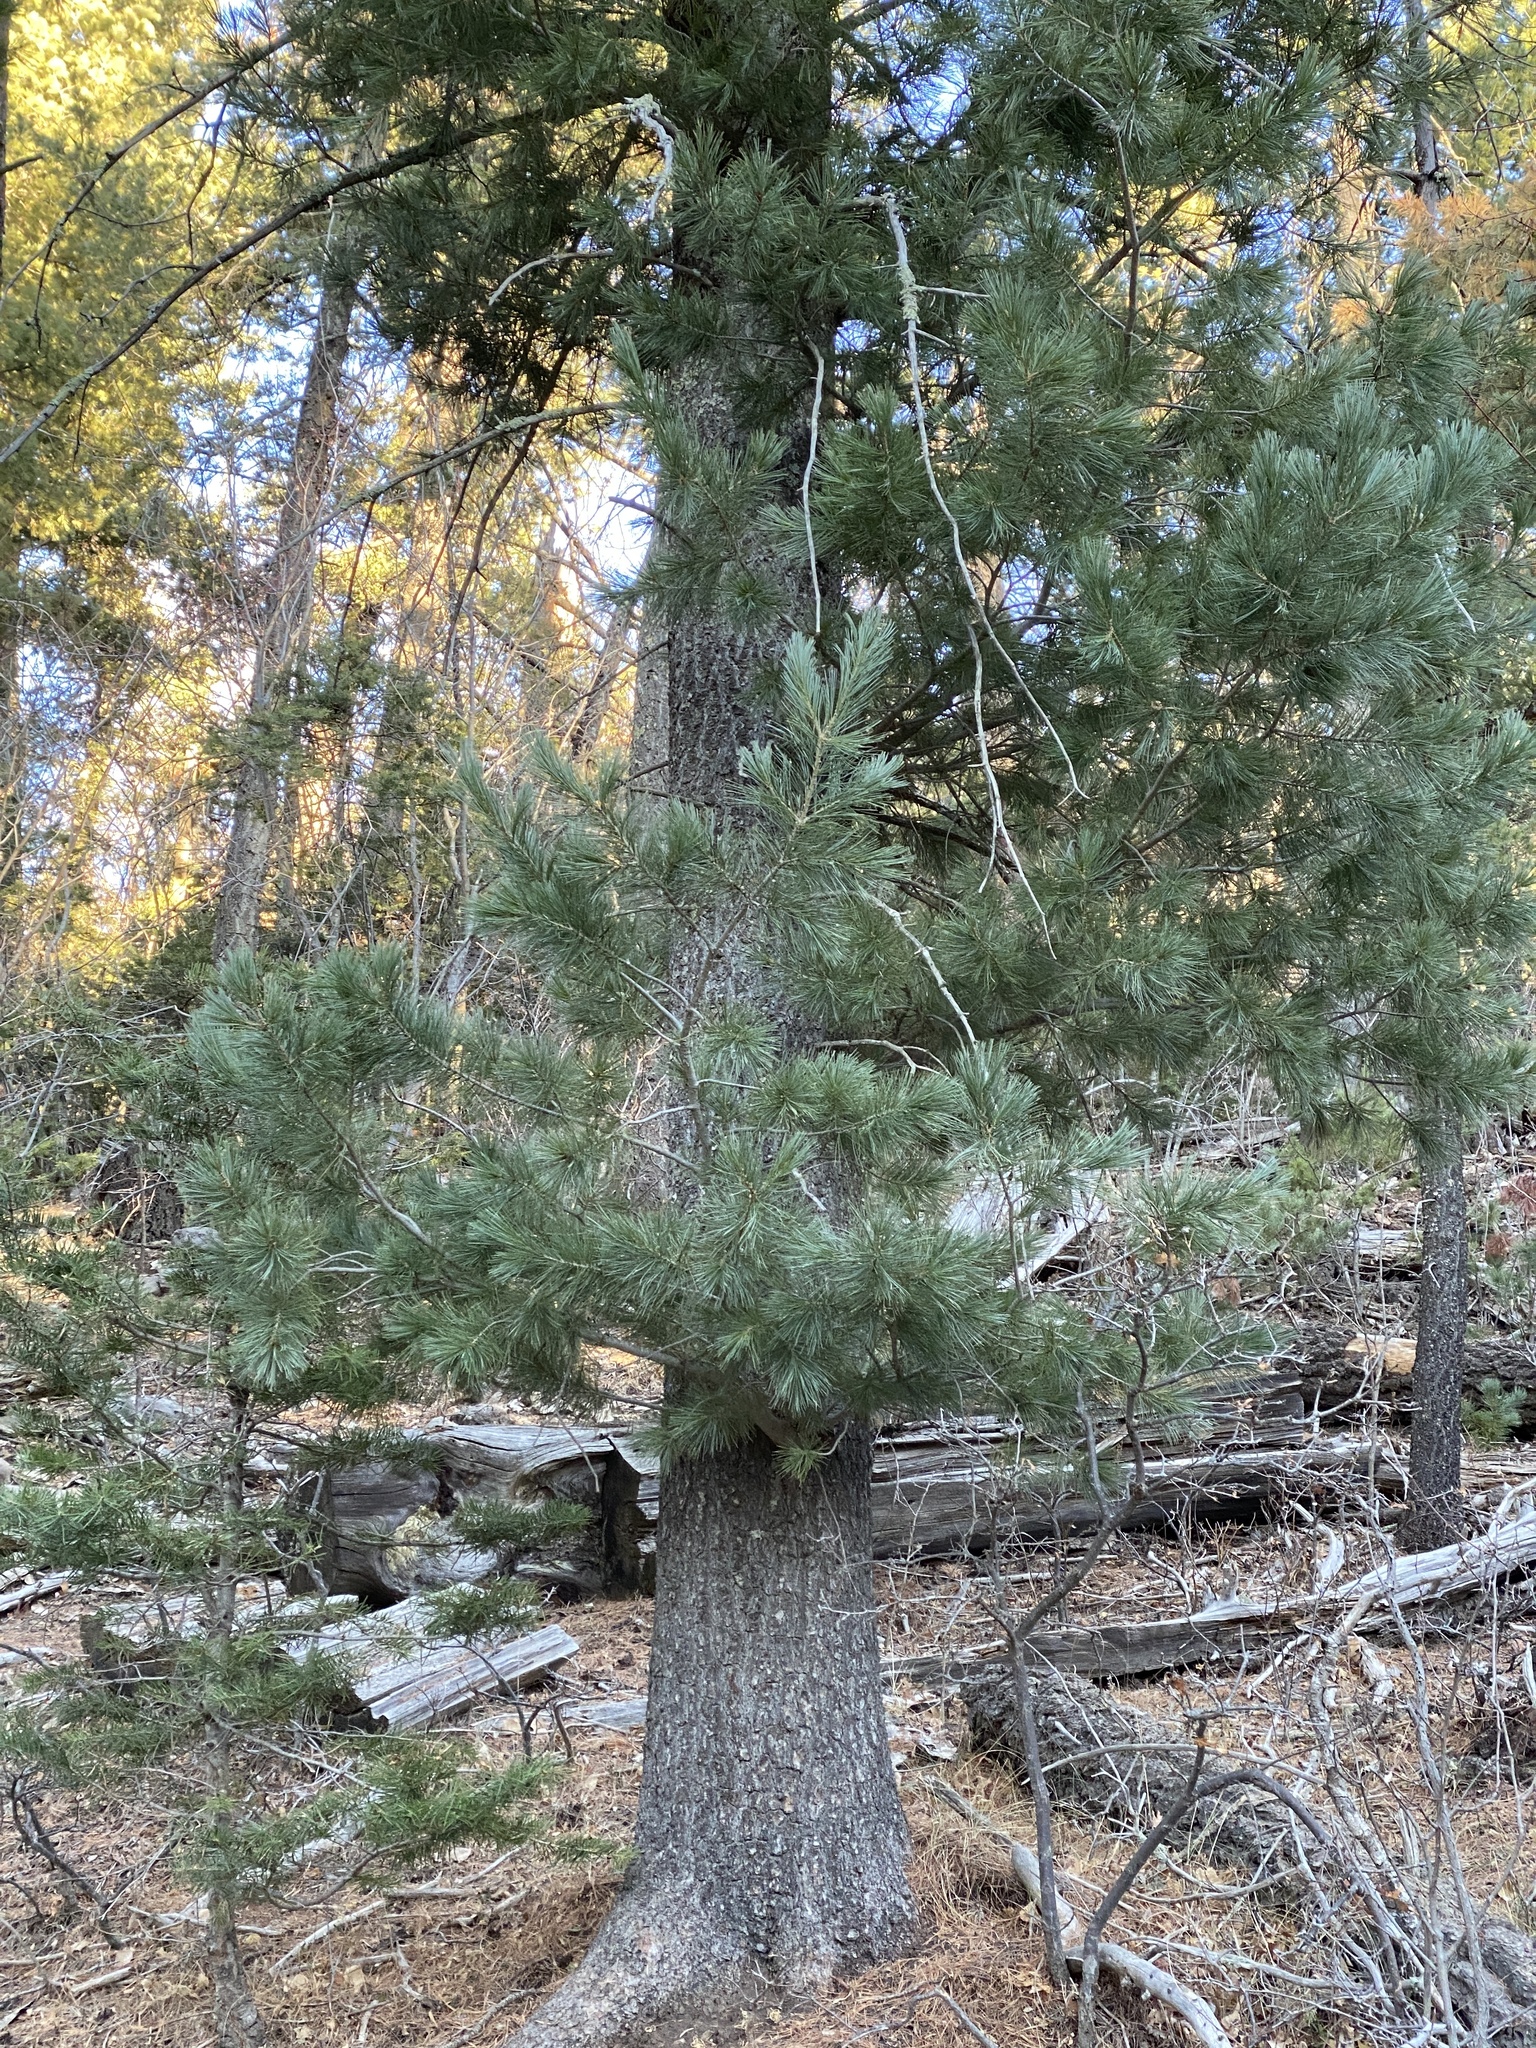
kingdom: Plantae
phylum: Tracheophyta
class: Pinopsida
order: Pinales
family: Pinaceae
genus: Pinus
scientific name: Pinus strobiformis
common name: Southwestern white pine
